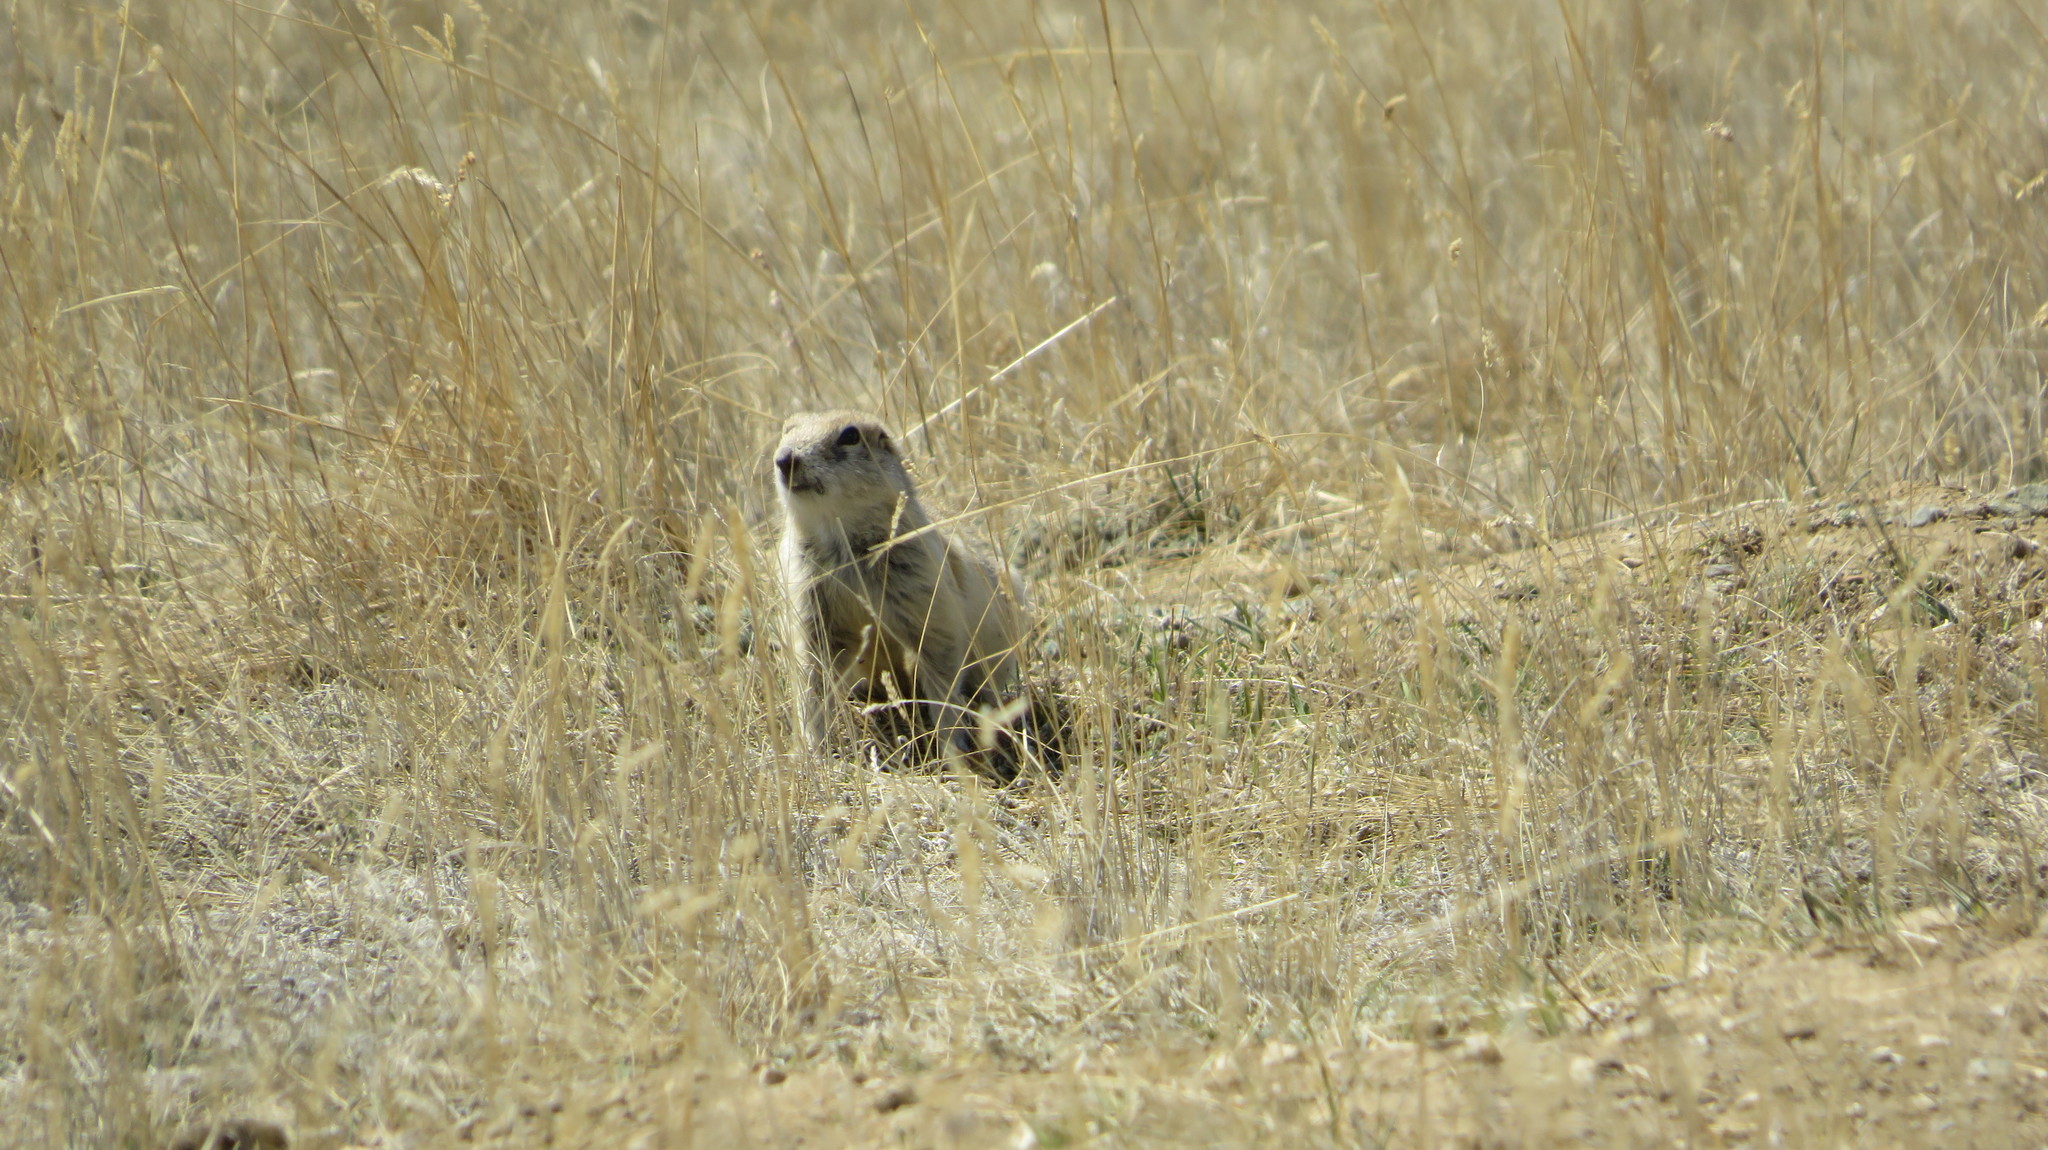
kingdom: Animalia
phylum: Chordata
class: Mammalia
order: Rodentia
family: Sciuridae
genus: Urocitellus
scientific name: Urocitellus undulatus
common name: Long-tailed ground squirrel
